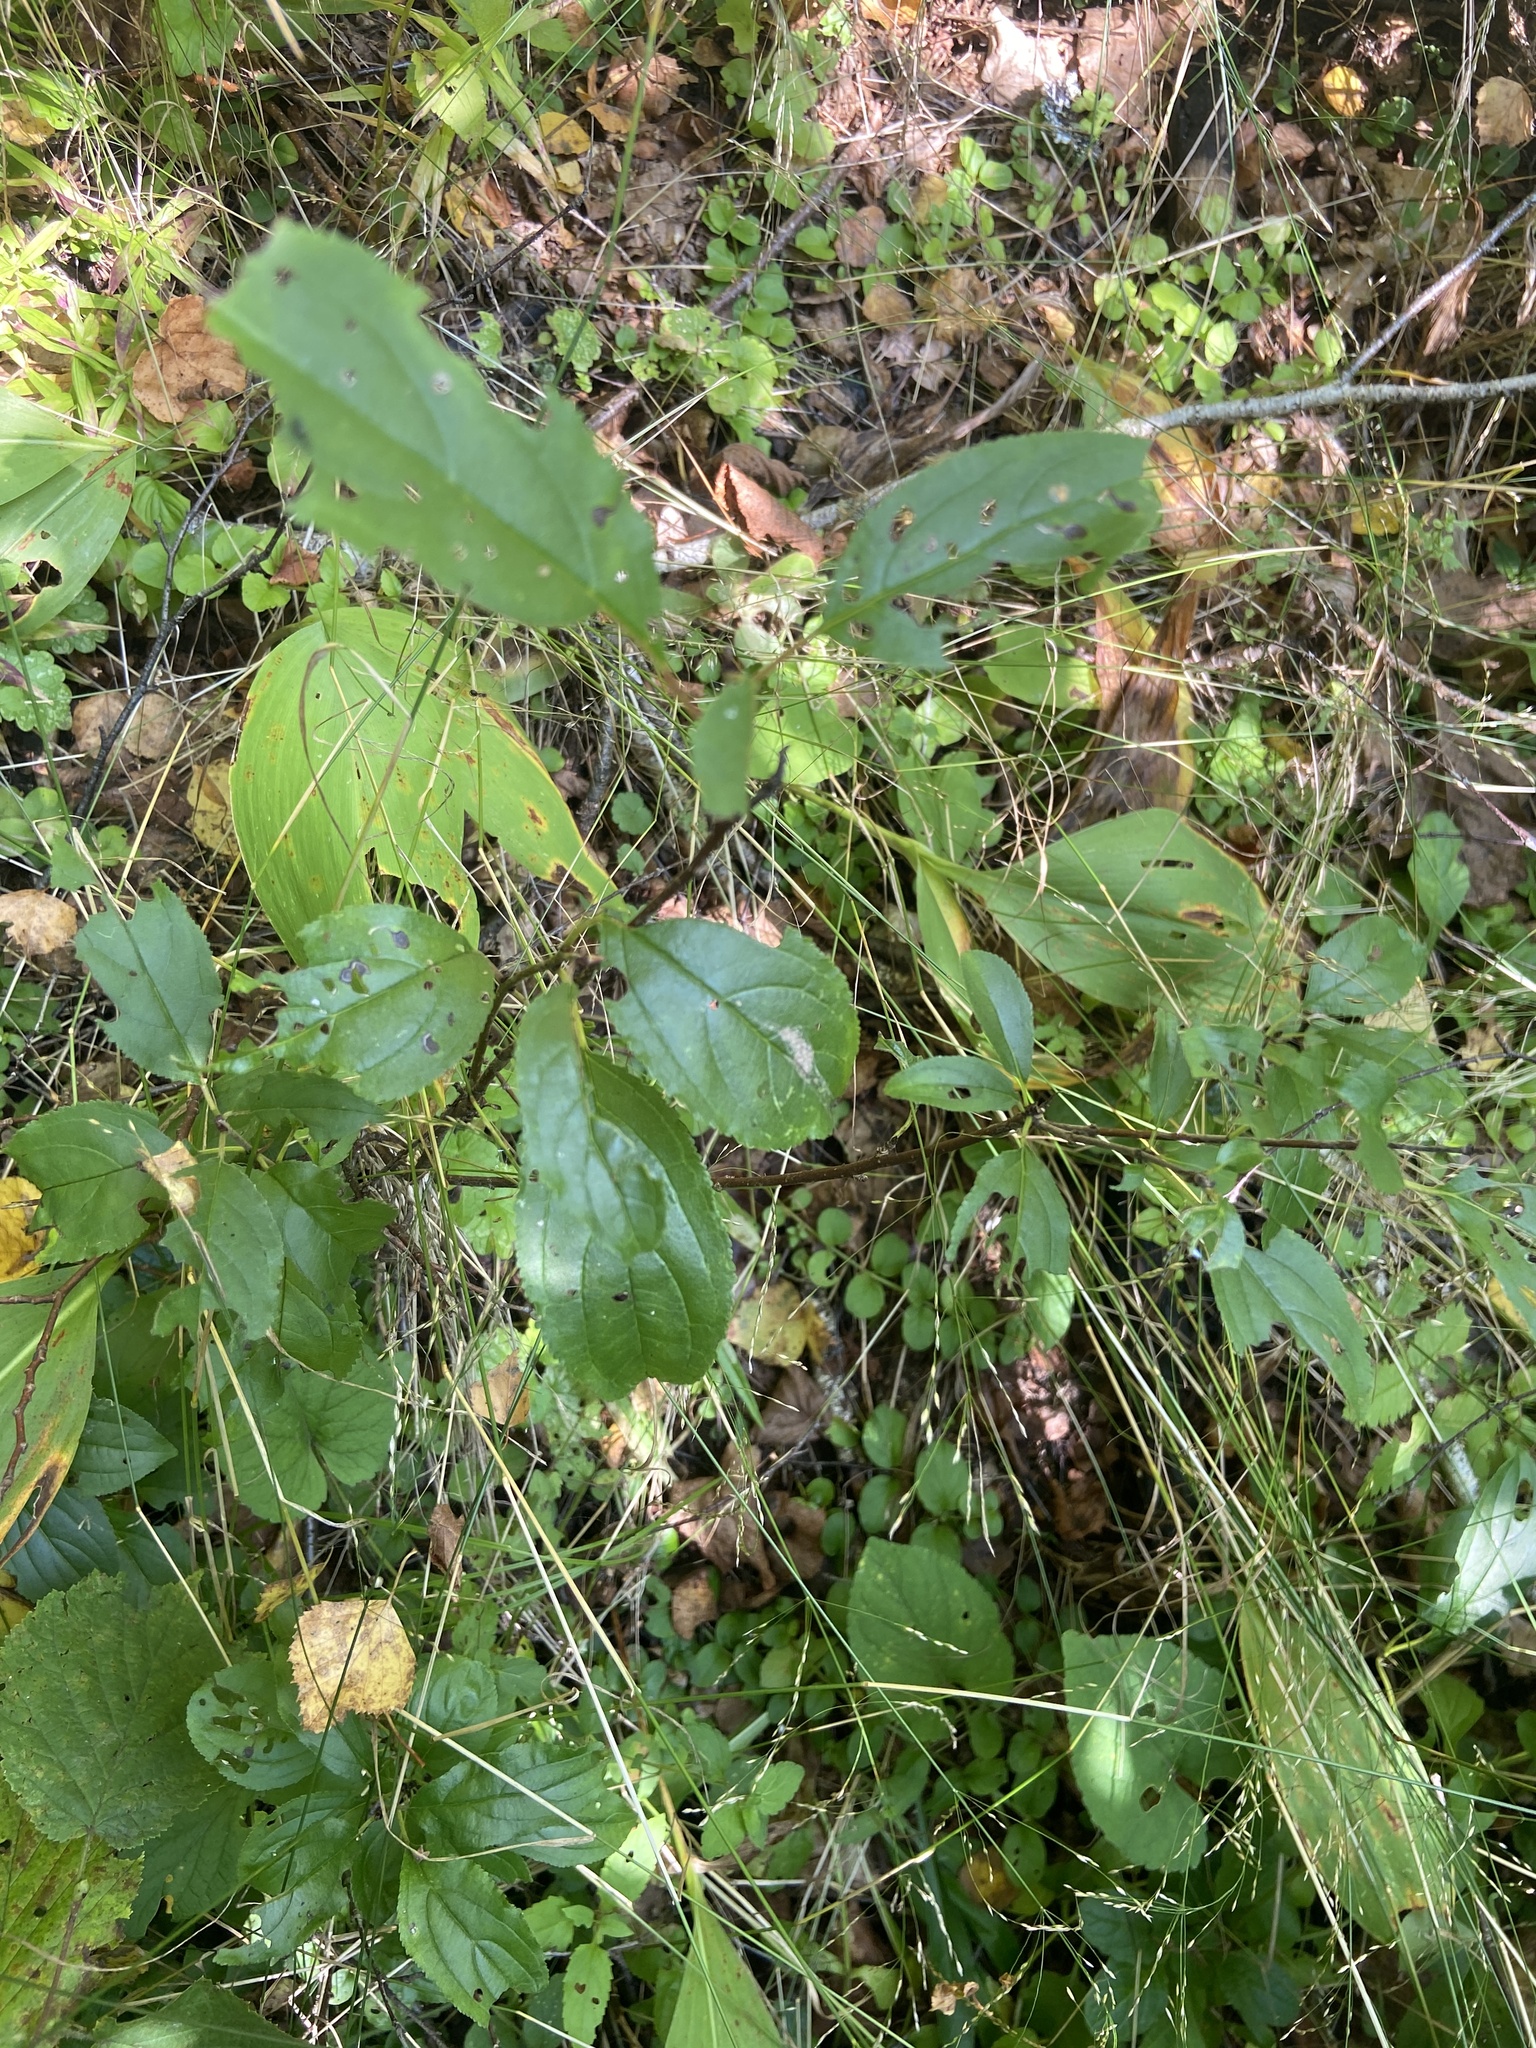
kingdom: Plantae
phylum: Tracheophyta
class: Magnoliopsida
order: Rosales
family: Rhamnaceae
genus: Rhamnus
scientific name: Rhamnus cathartica
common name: Common buckthorn
